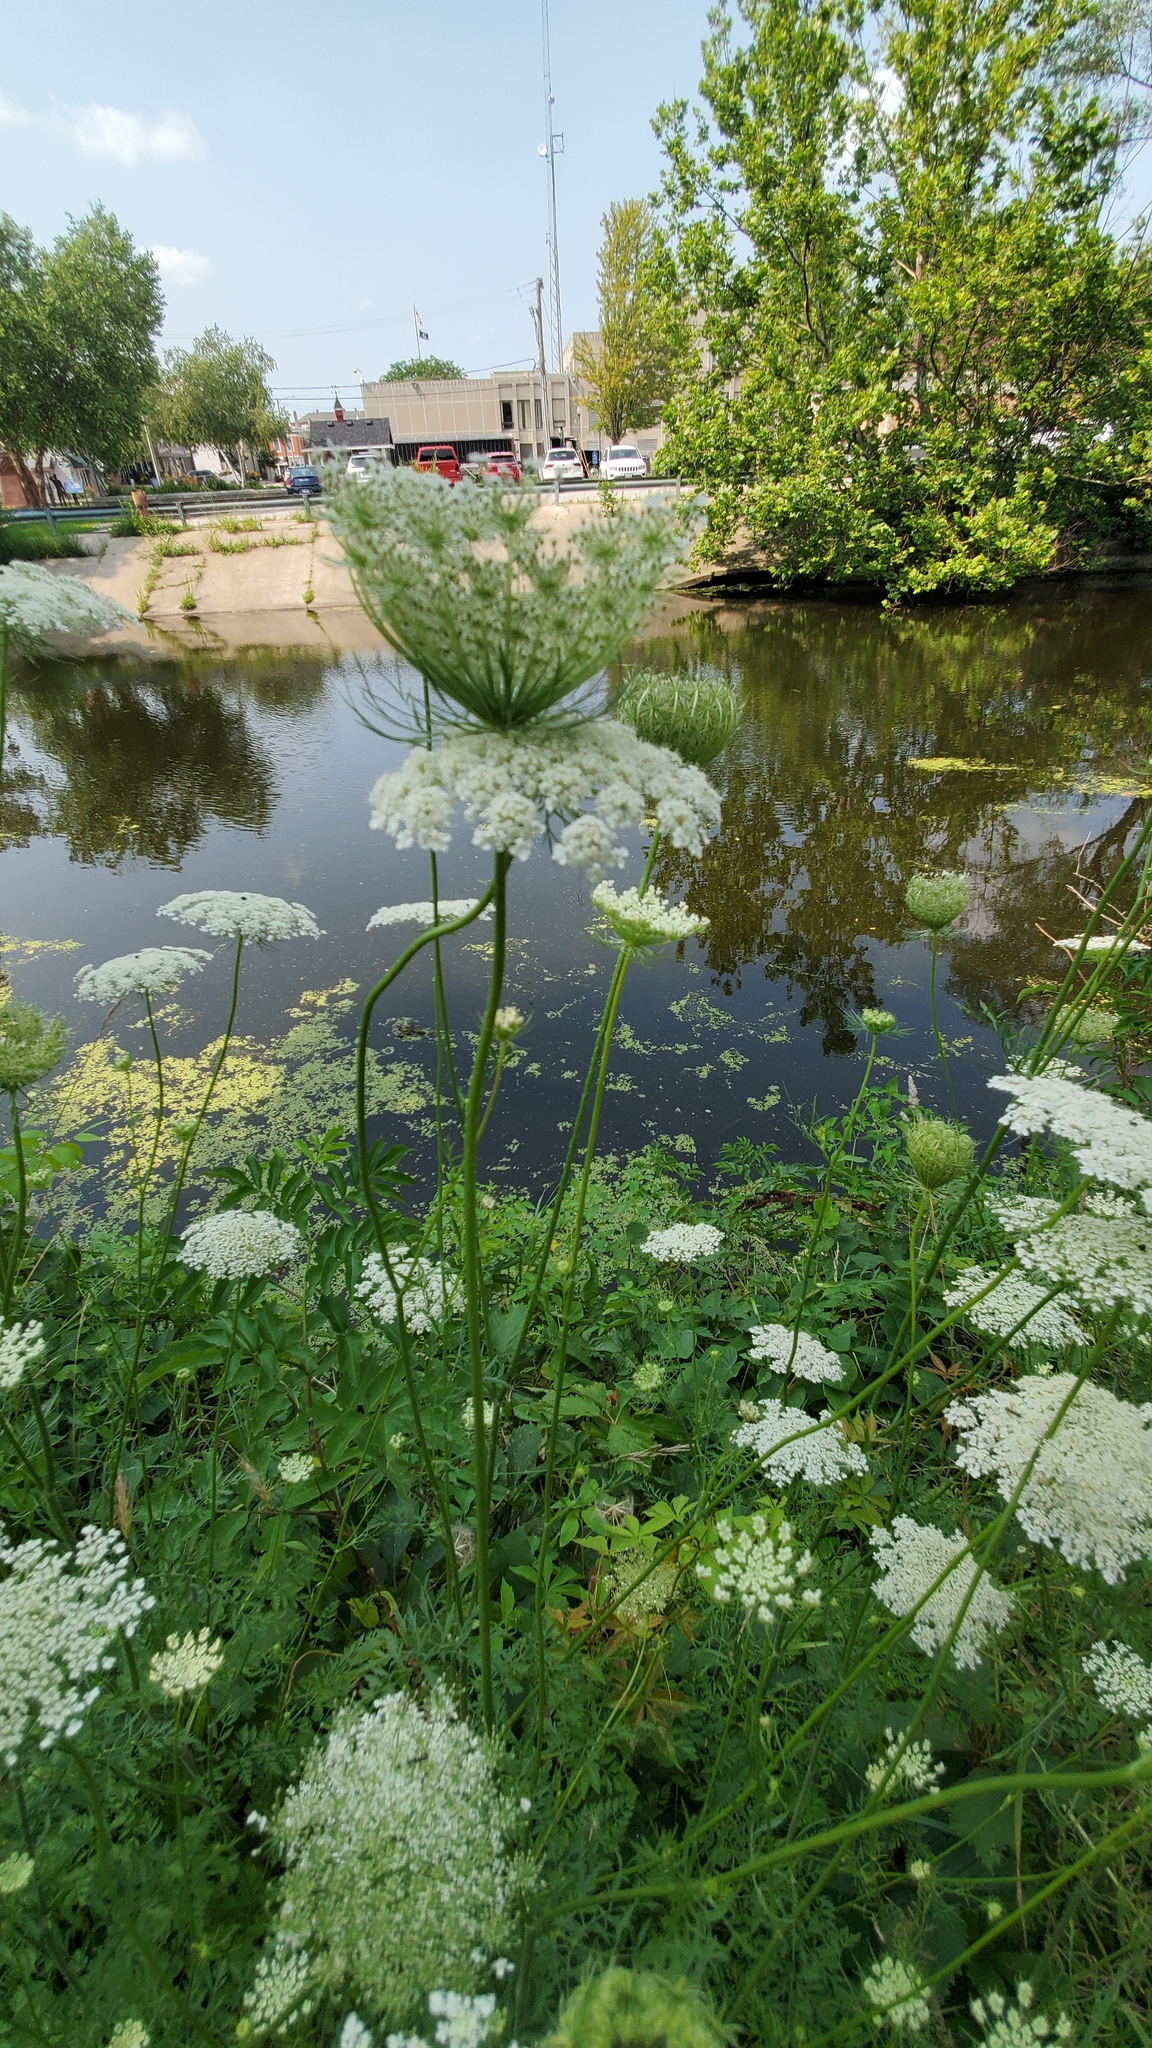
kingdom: Plantae
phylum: Tracheophyta
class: Magnoliopsida
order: Apiales
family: Apiaceae
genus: Daucus
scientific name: Daucus carota
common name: Wild carrot
